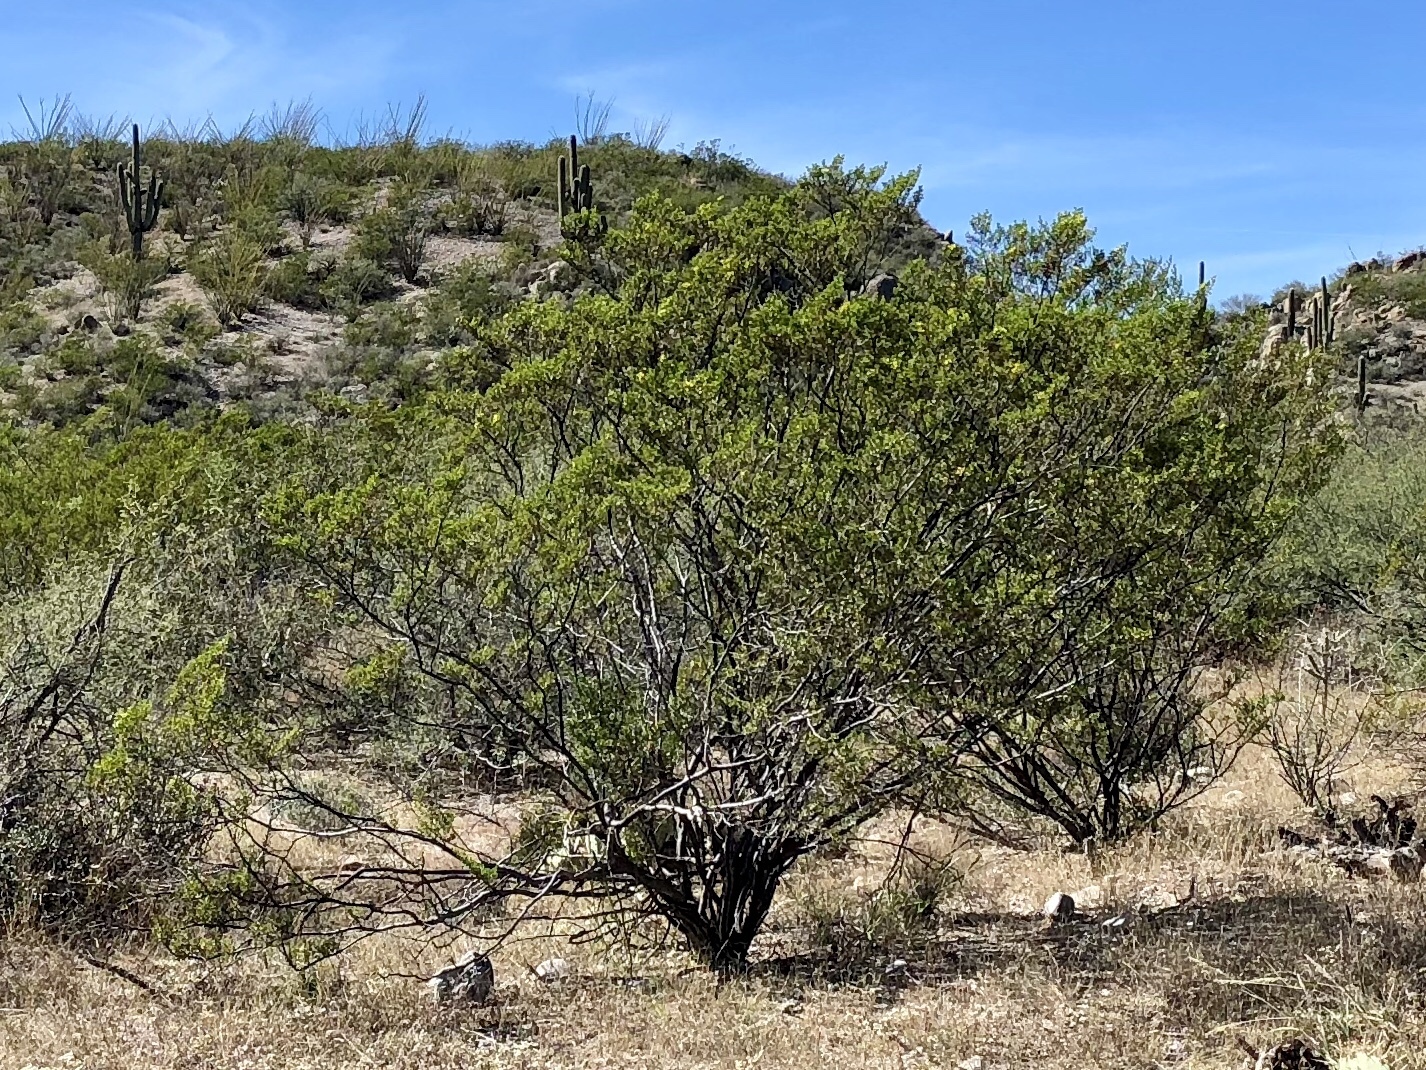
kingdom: Plantae
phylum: Tracheophyta
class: Magnoliopsida
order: Zygophyllales
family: Zygophyllaceae
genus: Larrea
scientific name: Larrea tridentata
